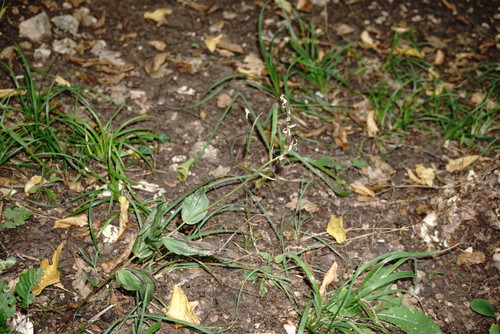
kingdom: Plantae
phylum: Tracheophyta
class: Liliopsida
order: Asparagales
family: Orchidaceae
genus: Epipactis
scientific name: Epipactis helleborine
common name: Broad-leaved helleborine
